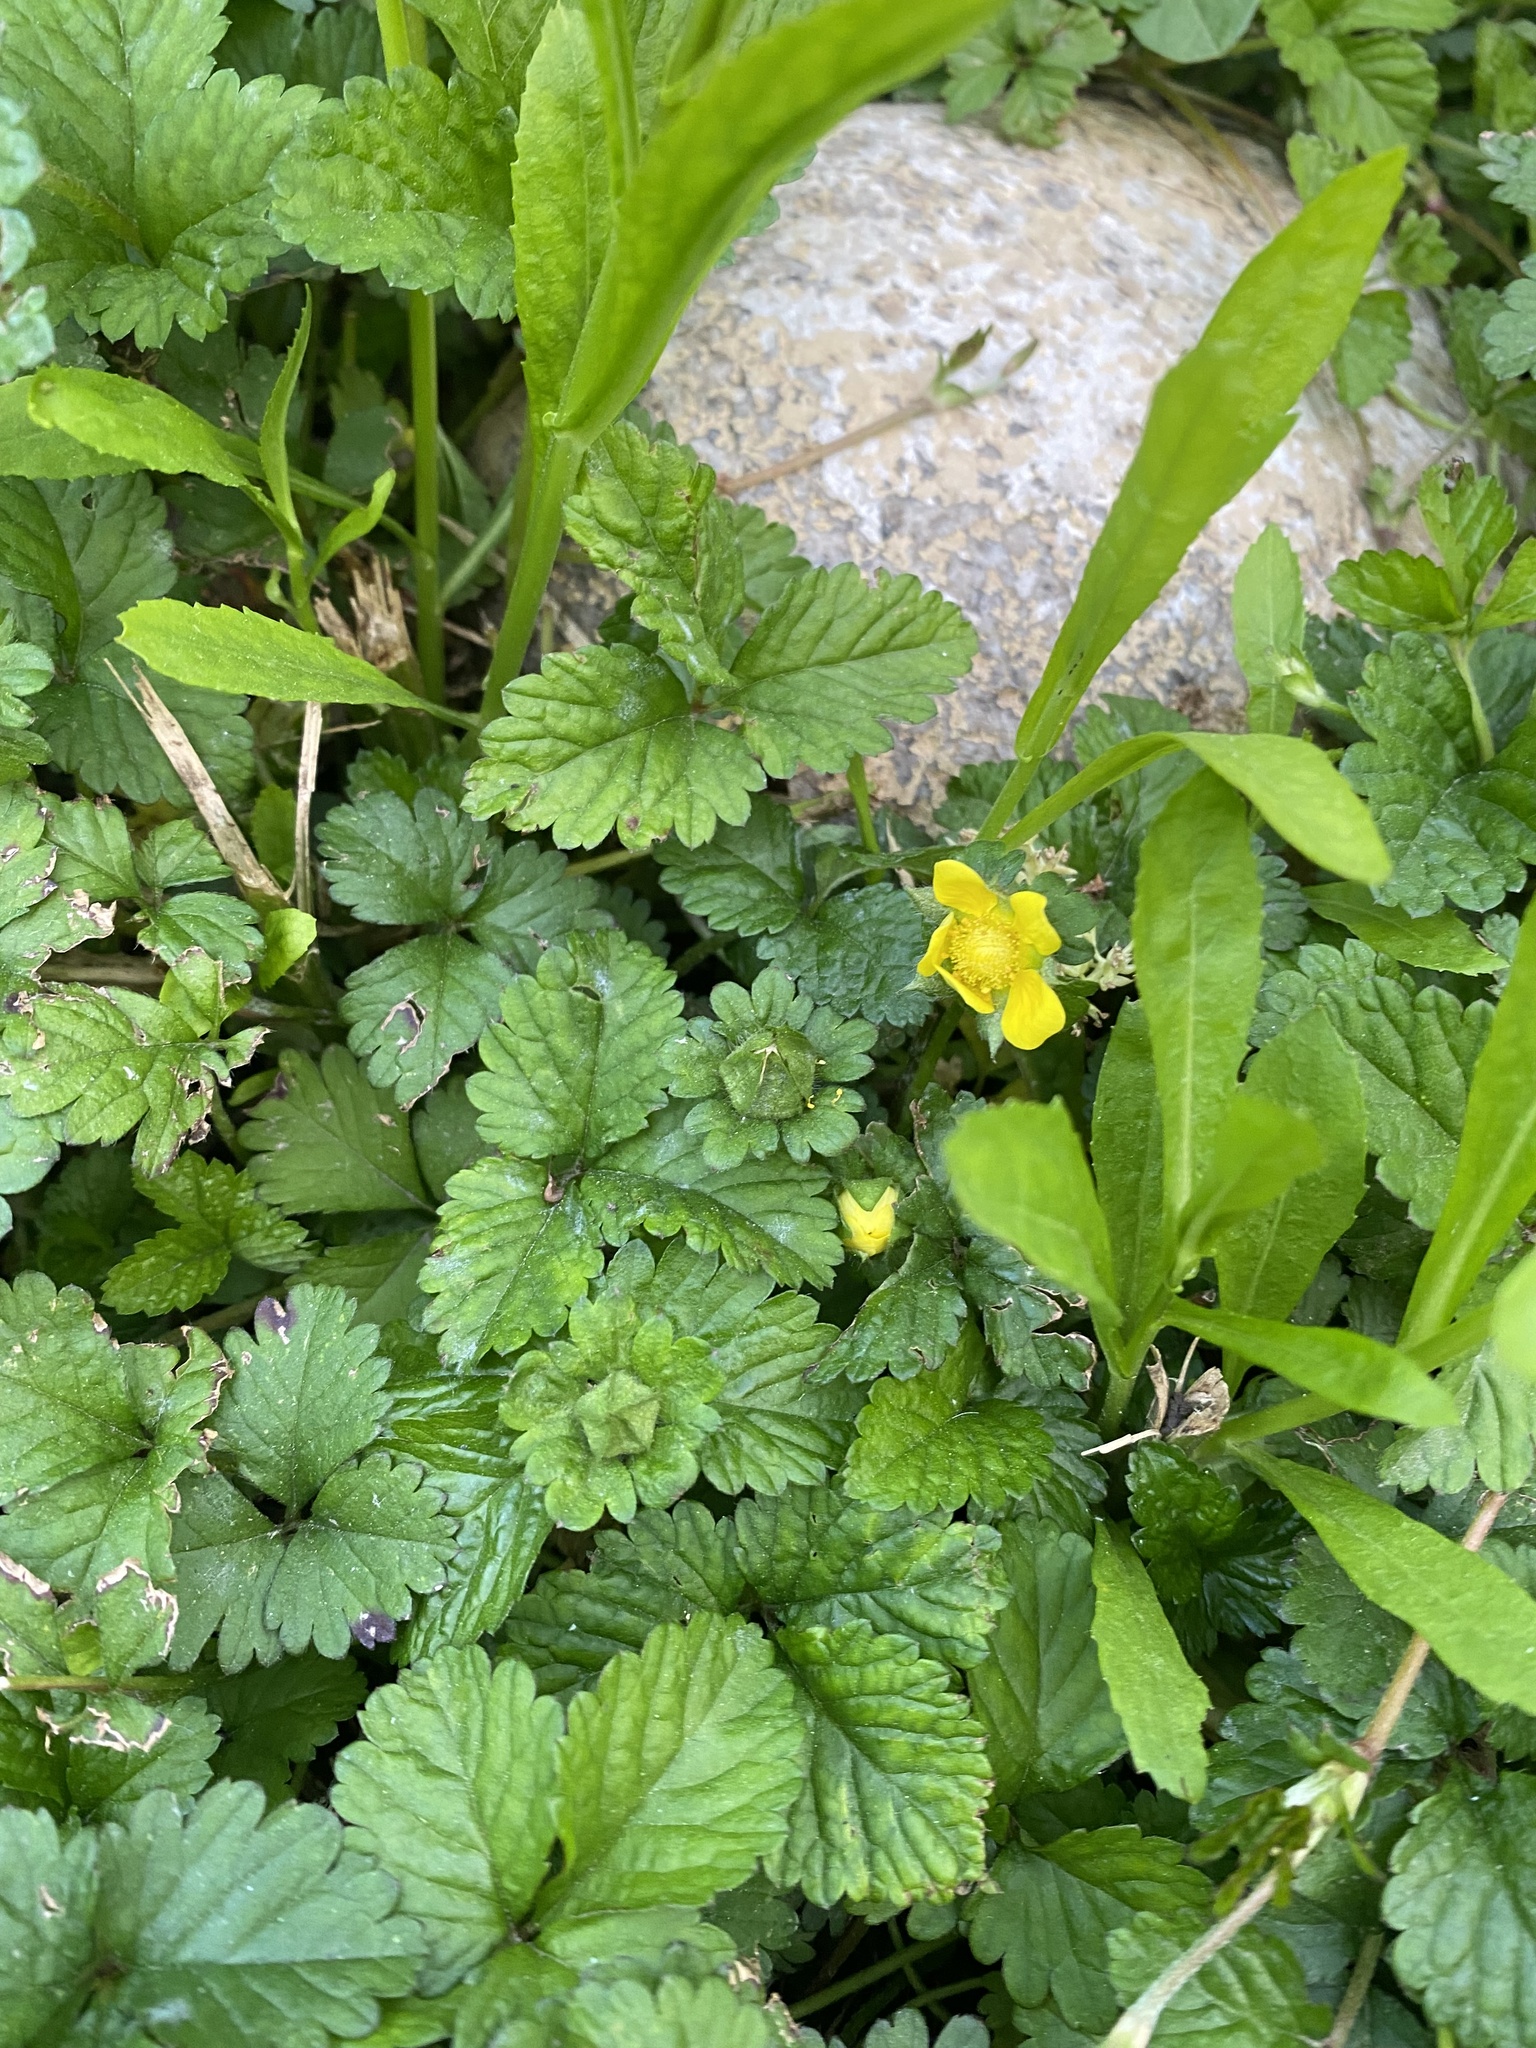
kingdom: Plantae
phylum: Tracheophyta
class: Magnoliopsida
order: Rosales
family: Rosaceae
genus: Potentilla
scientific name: Potentilla indica
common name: Yellow-flowered strawberry
